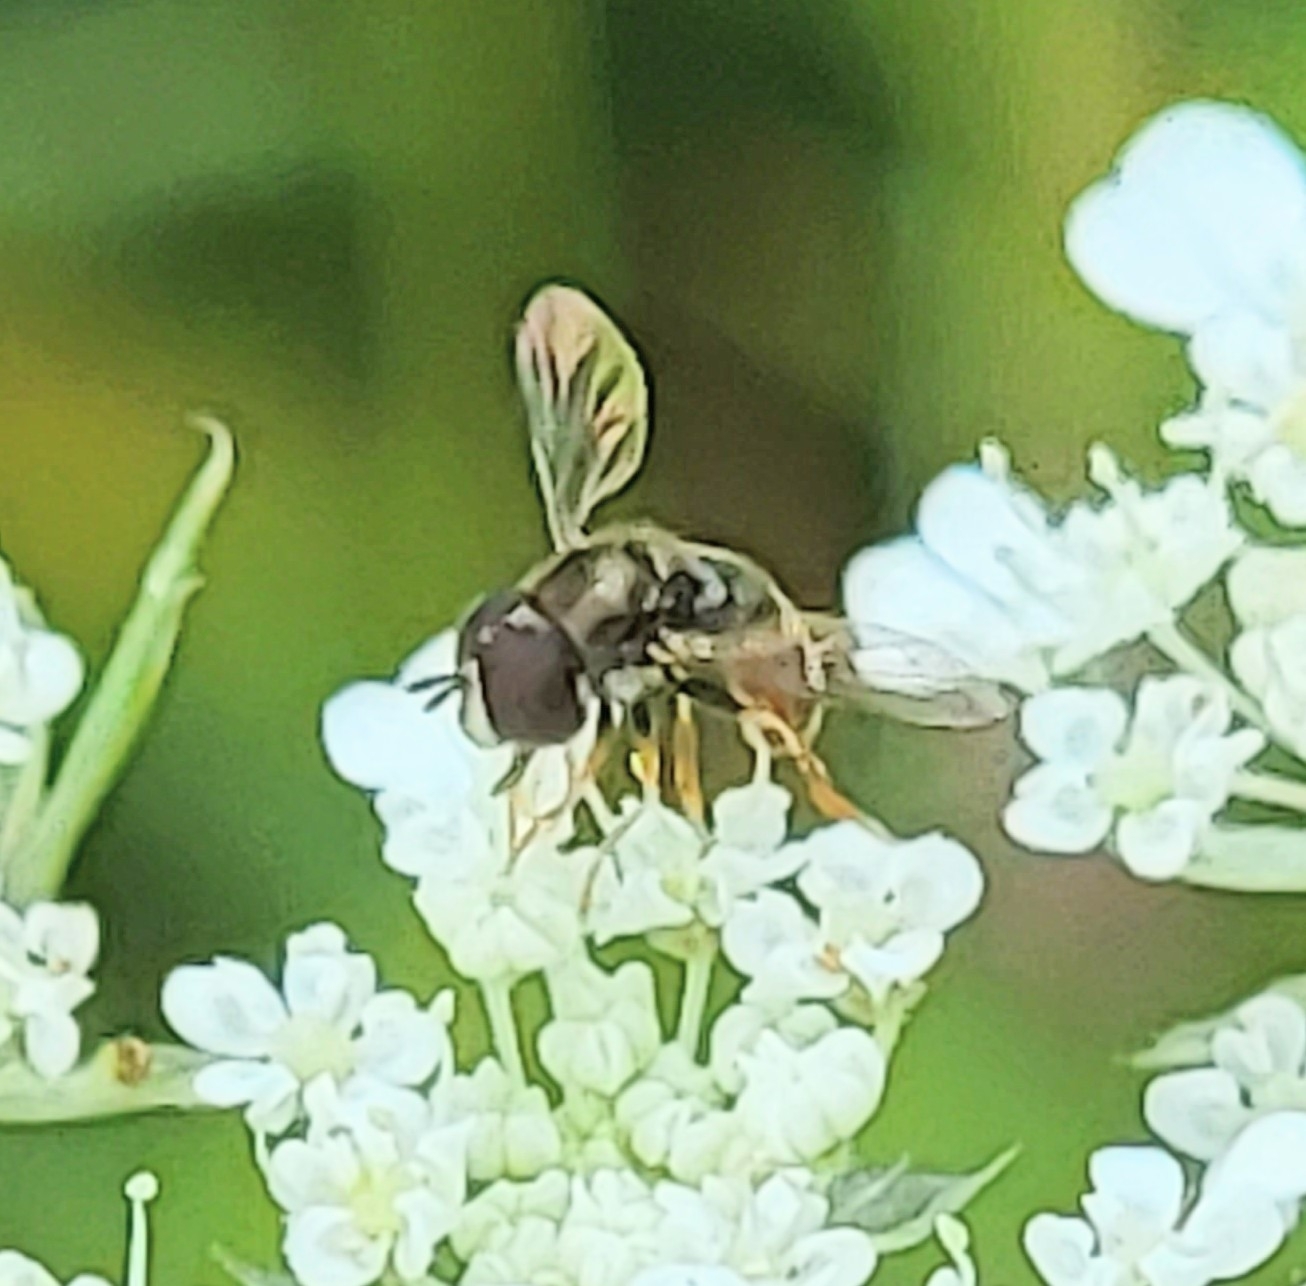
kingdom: Animalia
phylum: Arthropoda
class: Insecta
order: Diptera
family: Syrphidae
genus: Paragus
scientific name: Paragus haemorrhous
